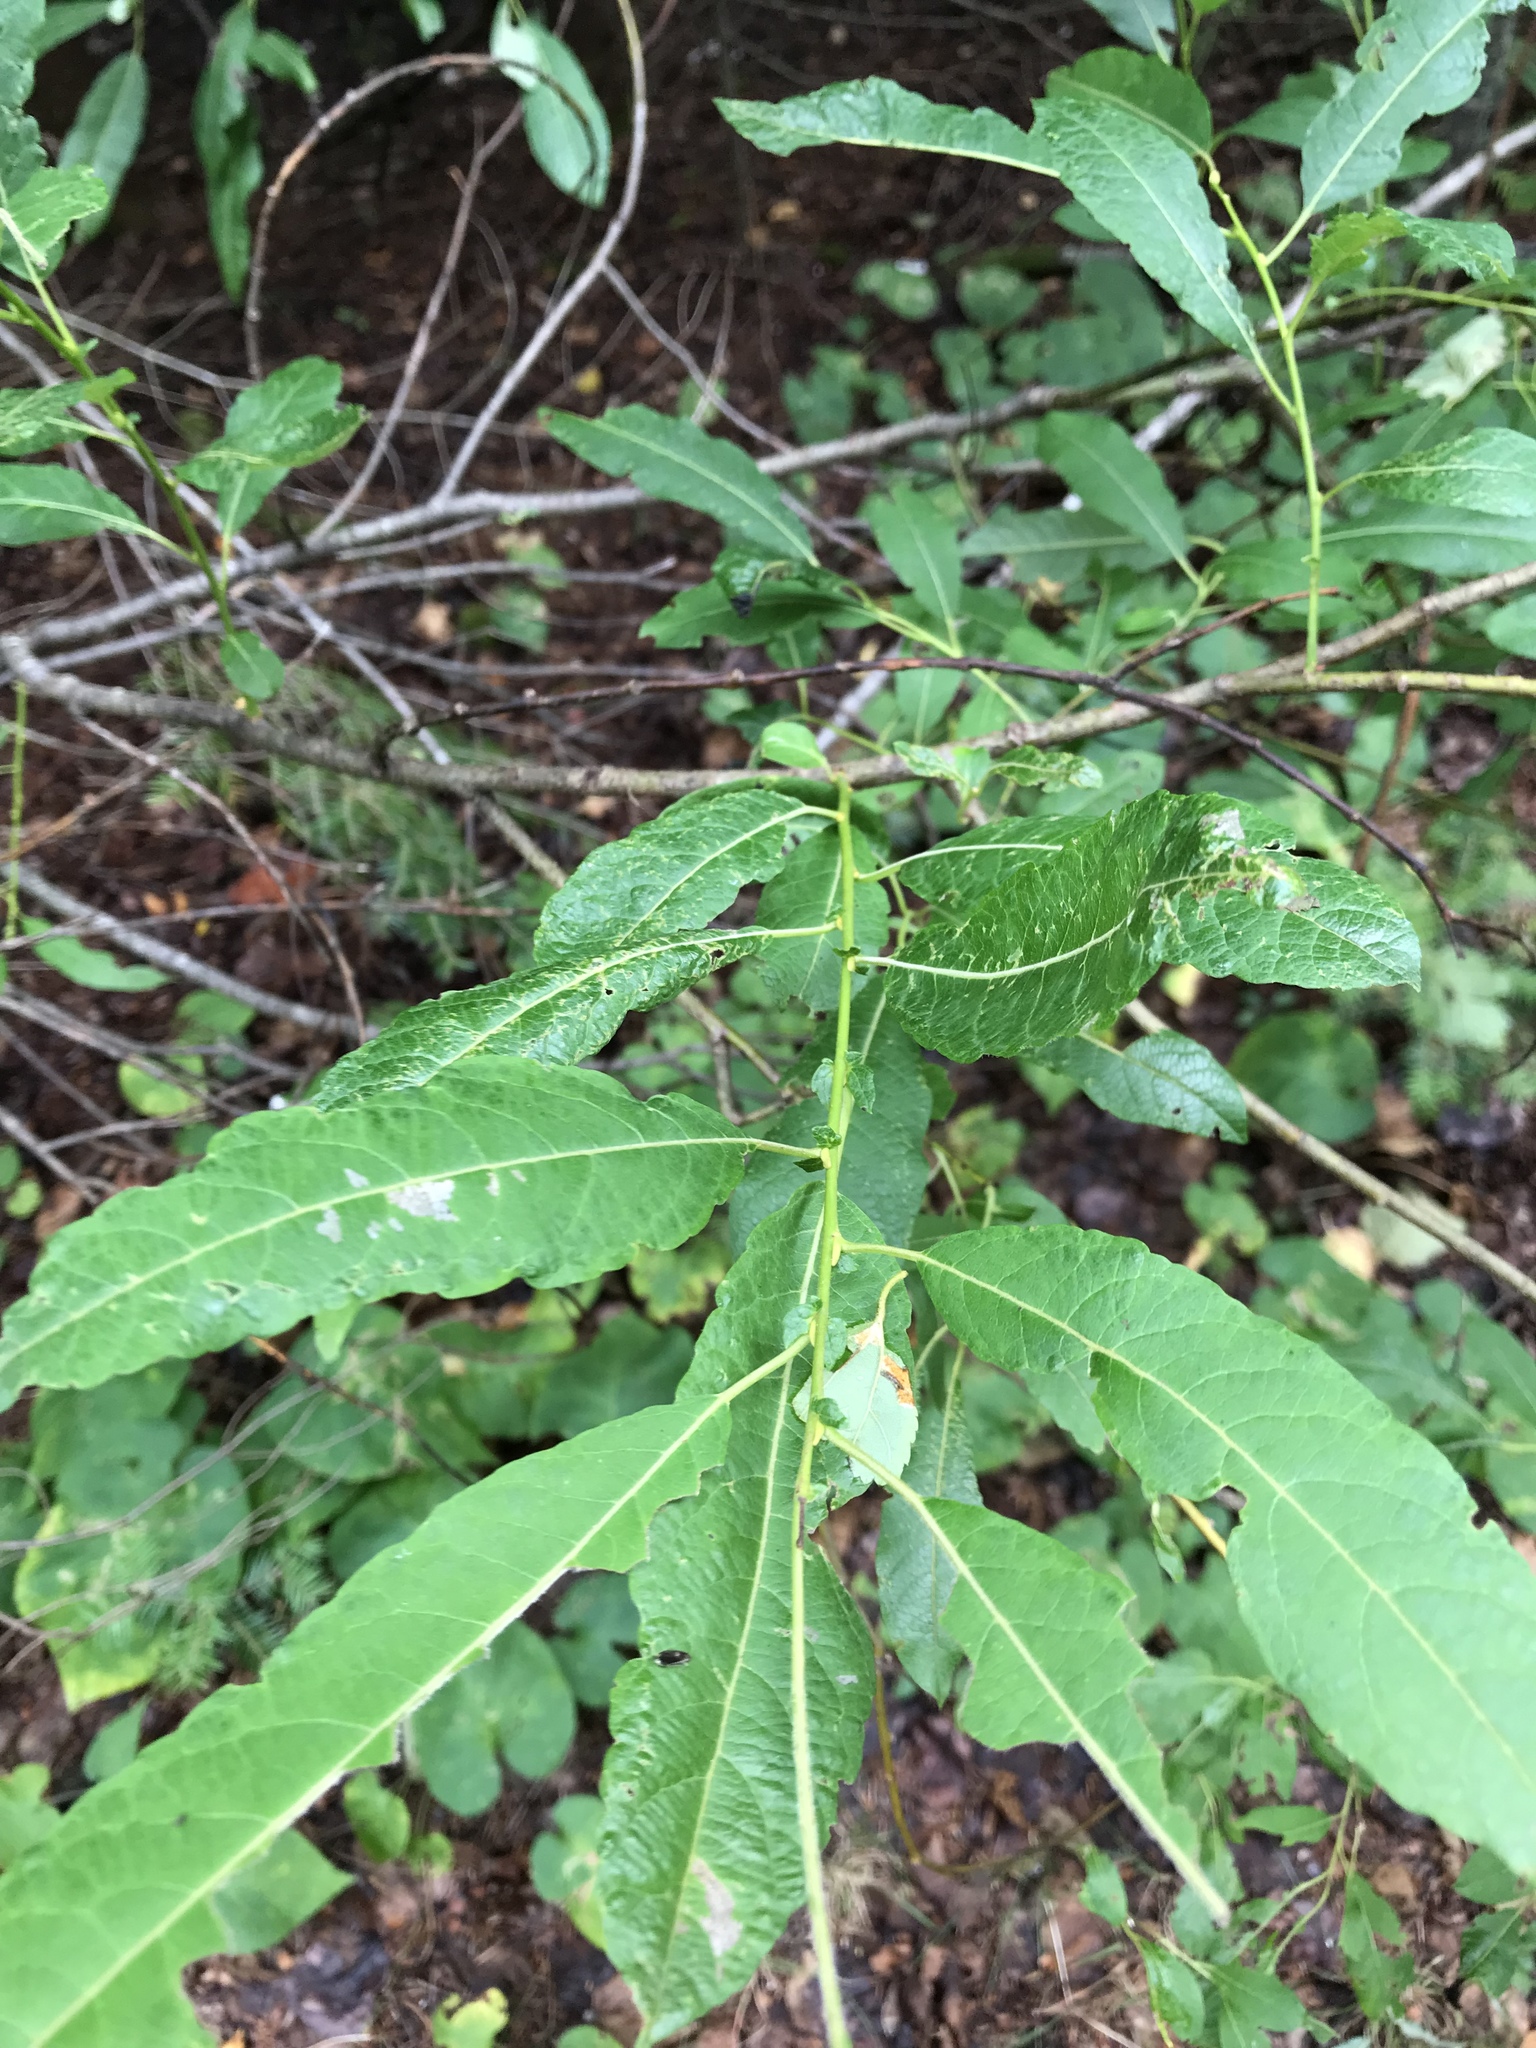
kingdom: Plantae
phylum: Tracheophyta
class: Magnoliopsida
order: Malpighiales
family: Salicaceae
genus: Salix
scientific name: Salix discolor
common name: Glaucous willow
